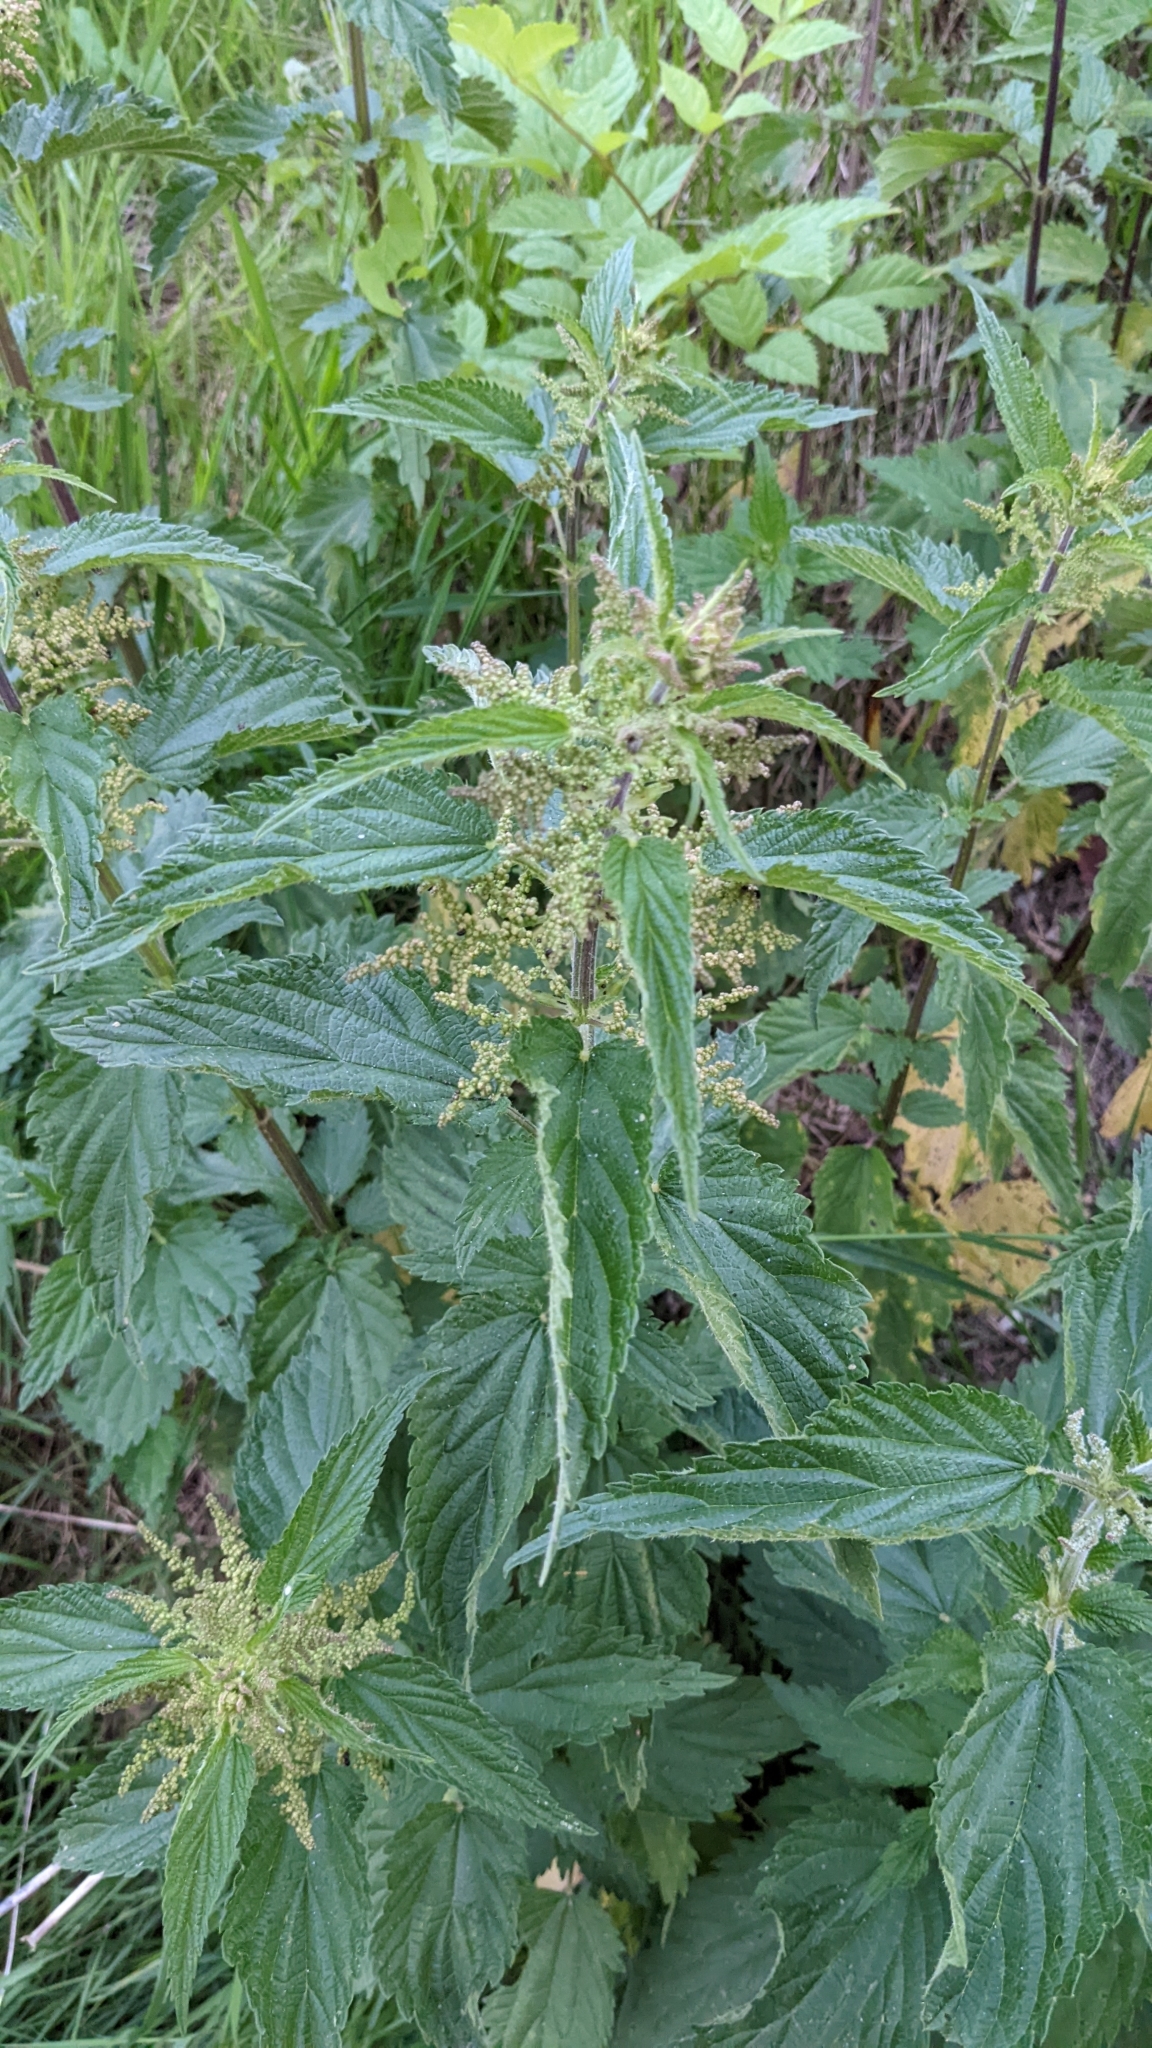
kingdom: Plantae
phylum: Tracheophyta
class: Magnoliopsida
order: Rosales
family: Urticaceae
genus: Urtica
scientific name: Urtica dioica
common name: Common nettle
